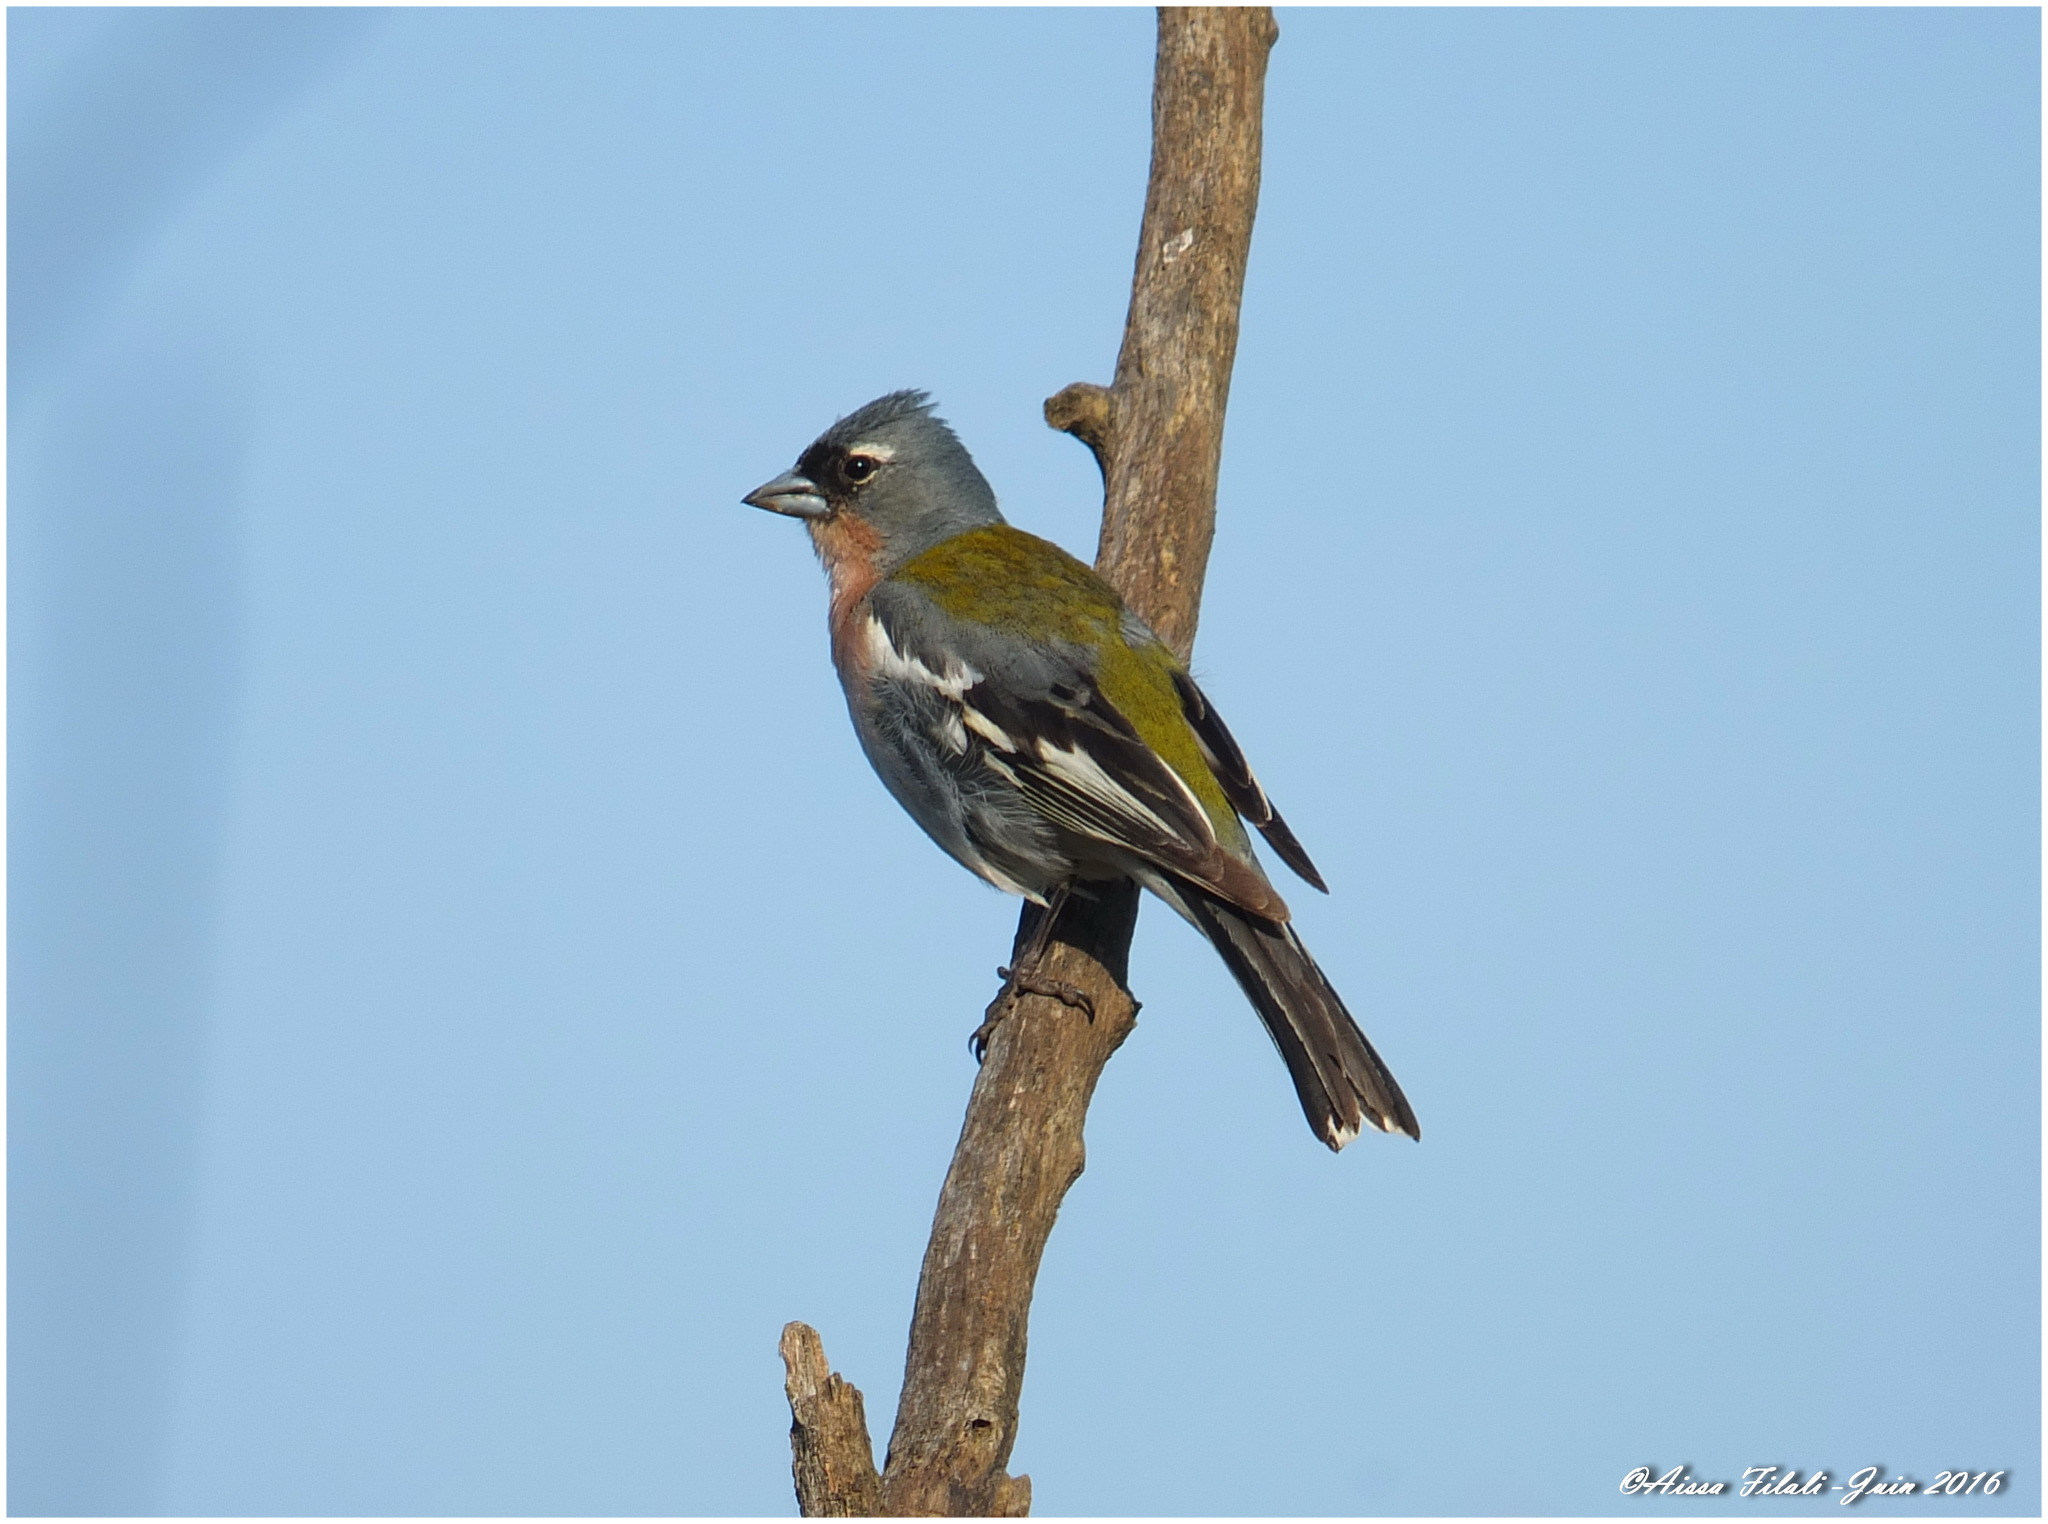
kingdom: Animalia
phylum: Chordata
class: Aves
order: Passeriformes
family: Fringillidae
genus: Fringilla
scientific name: Fringilla spodiogenys
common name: African chaffinch
